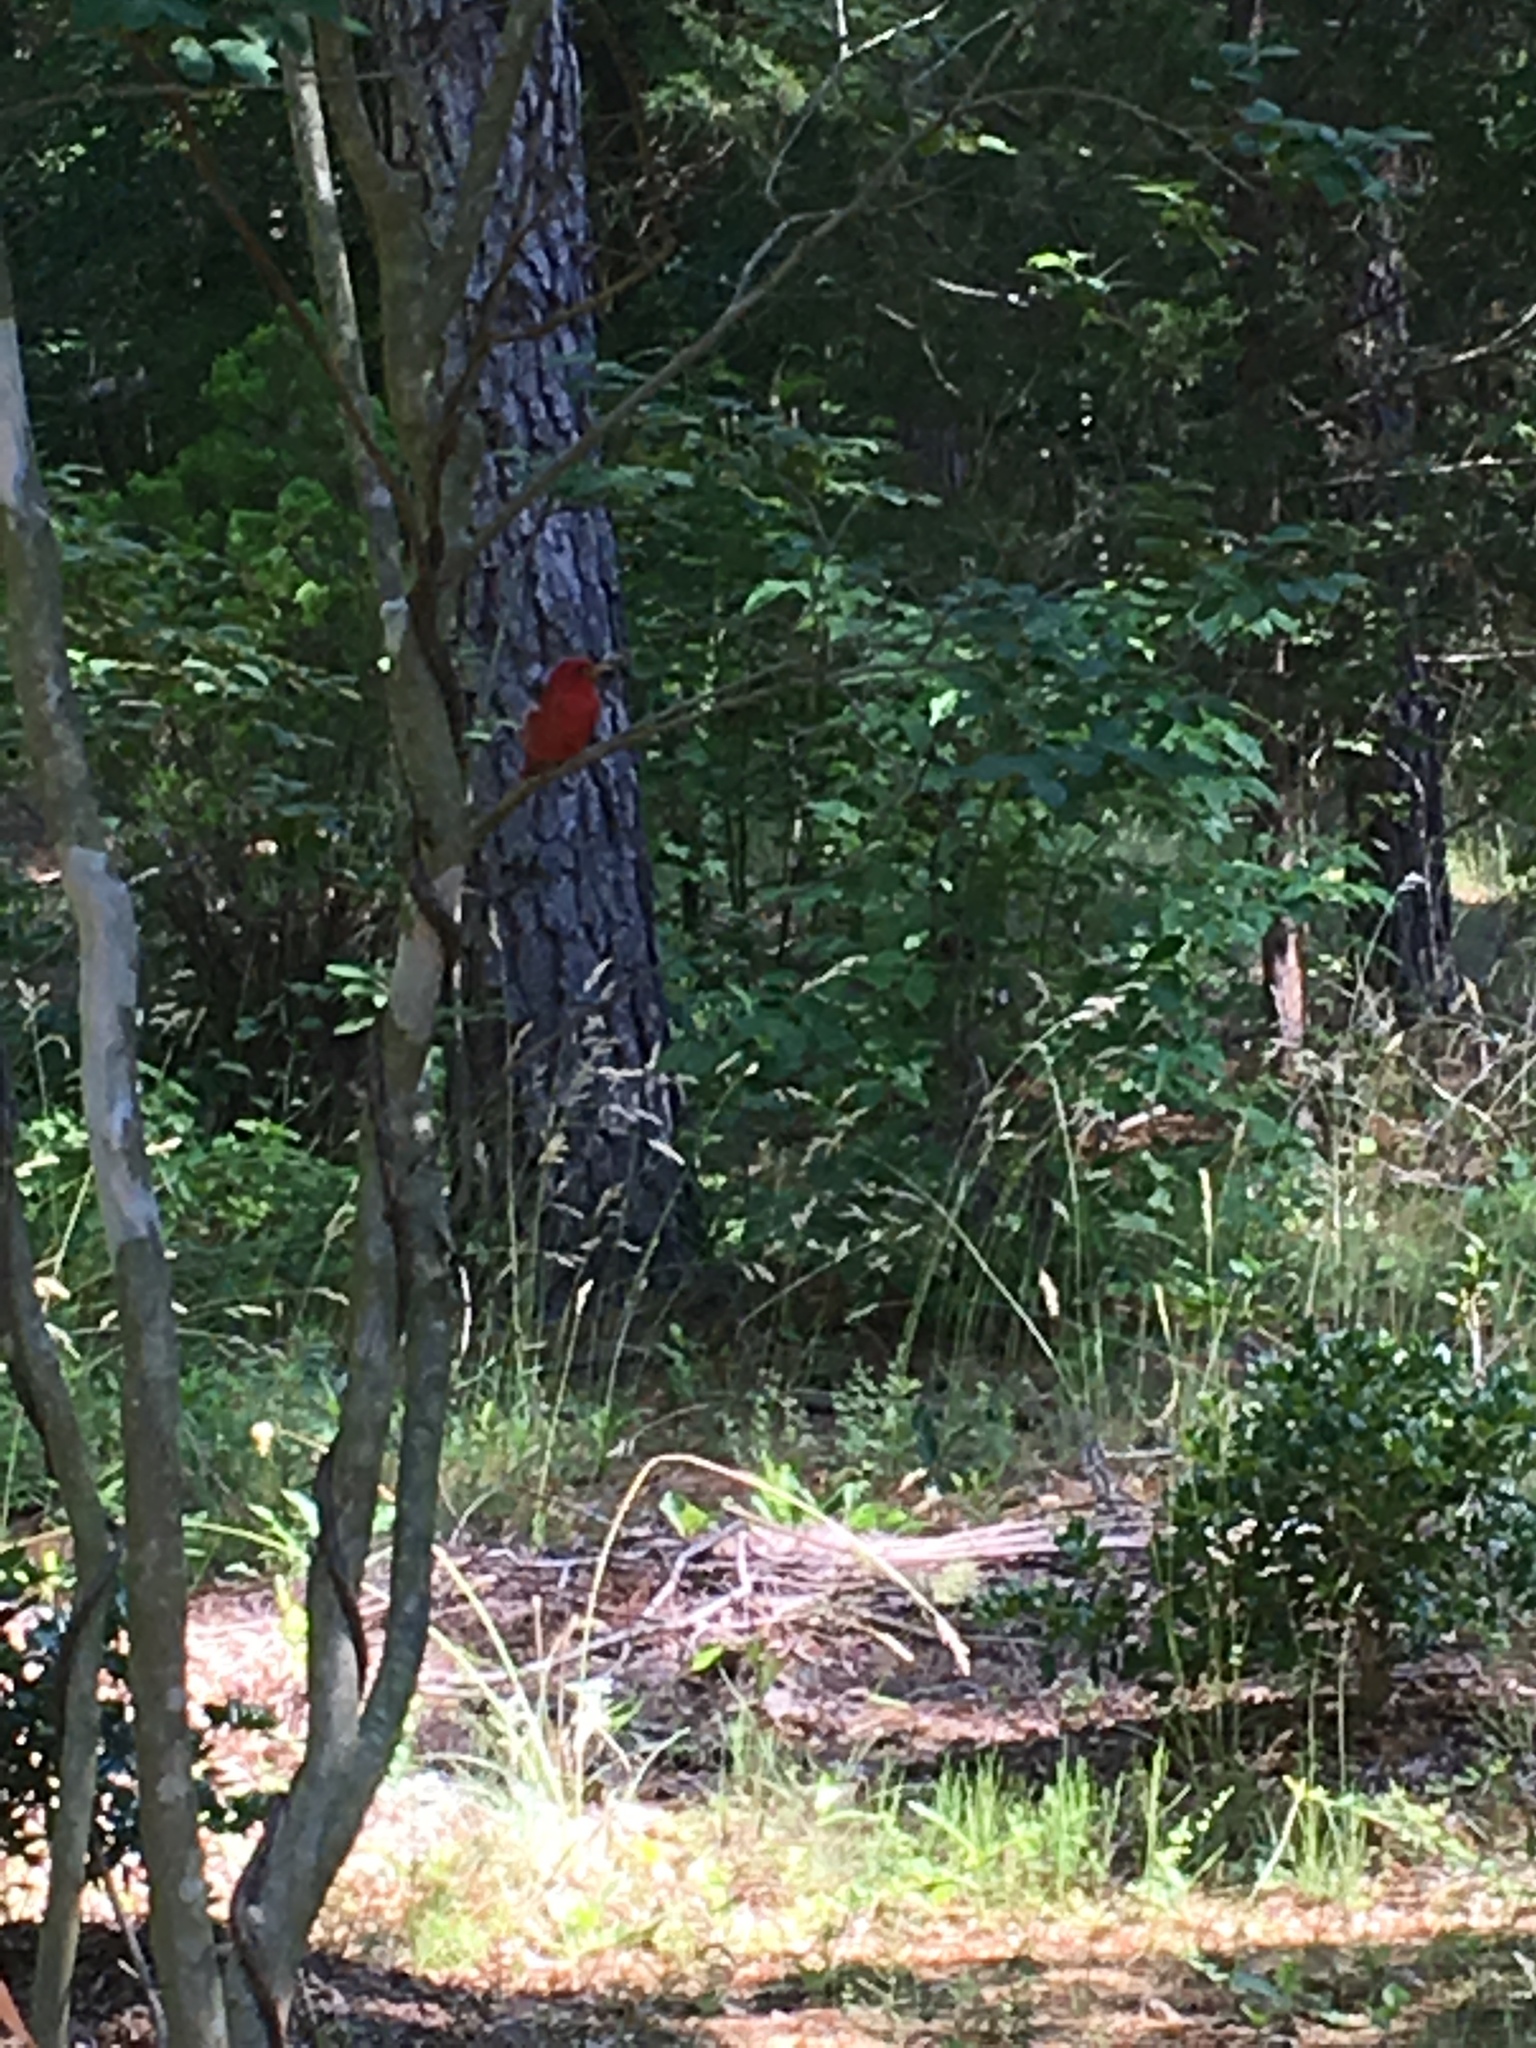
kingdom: Animalia
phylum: Chordata
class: Aves
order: Passeriformes
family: Cardinalidae
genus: Piranga
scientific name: Piranga rubra
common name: Summer tanager
